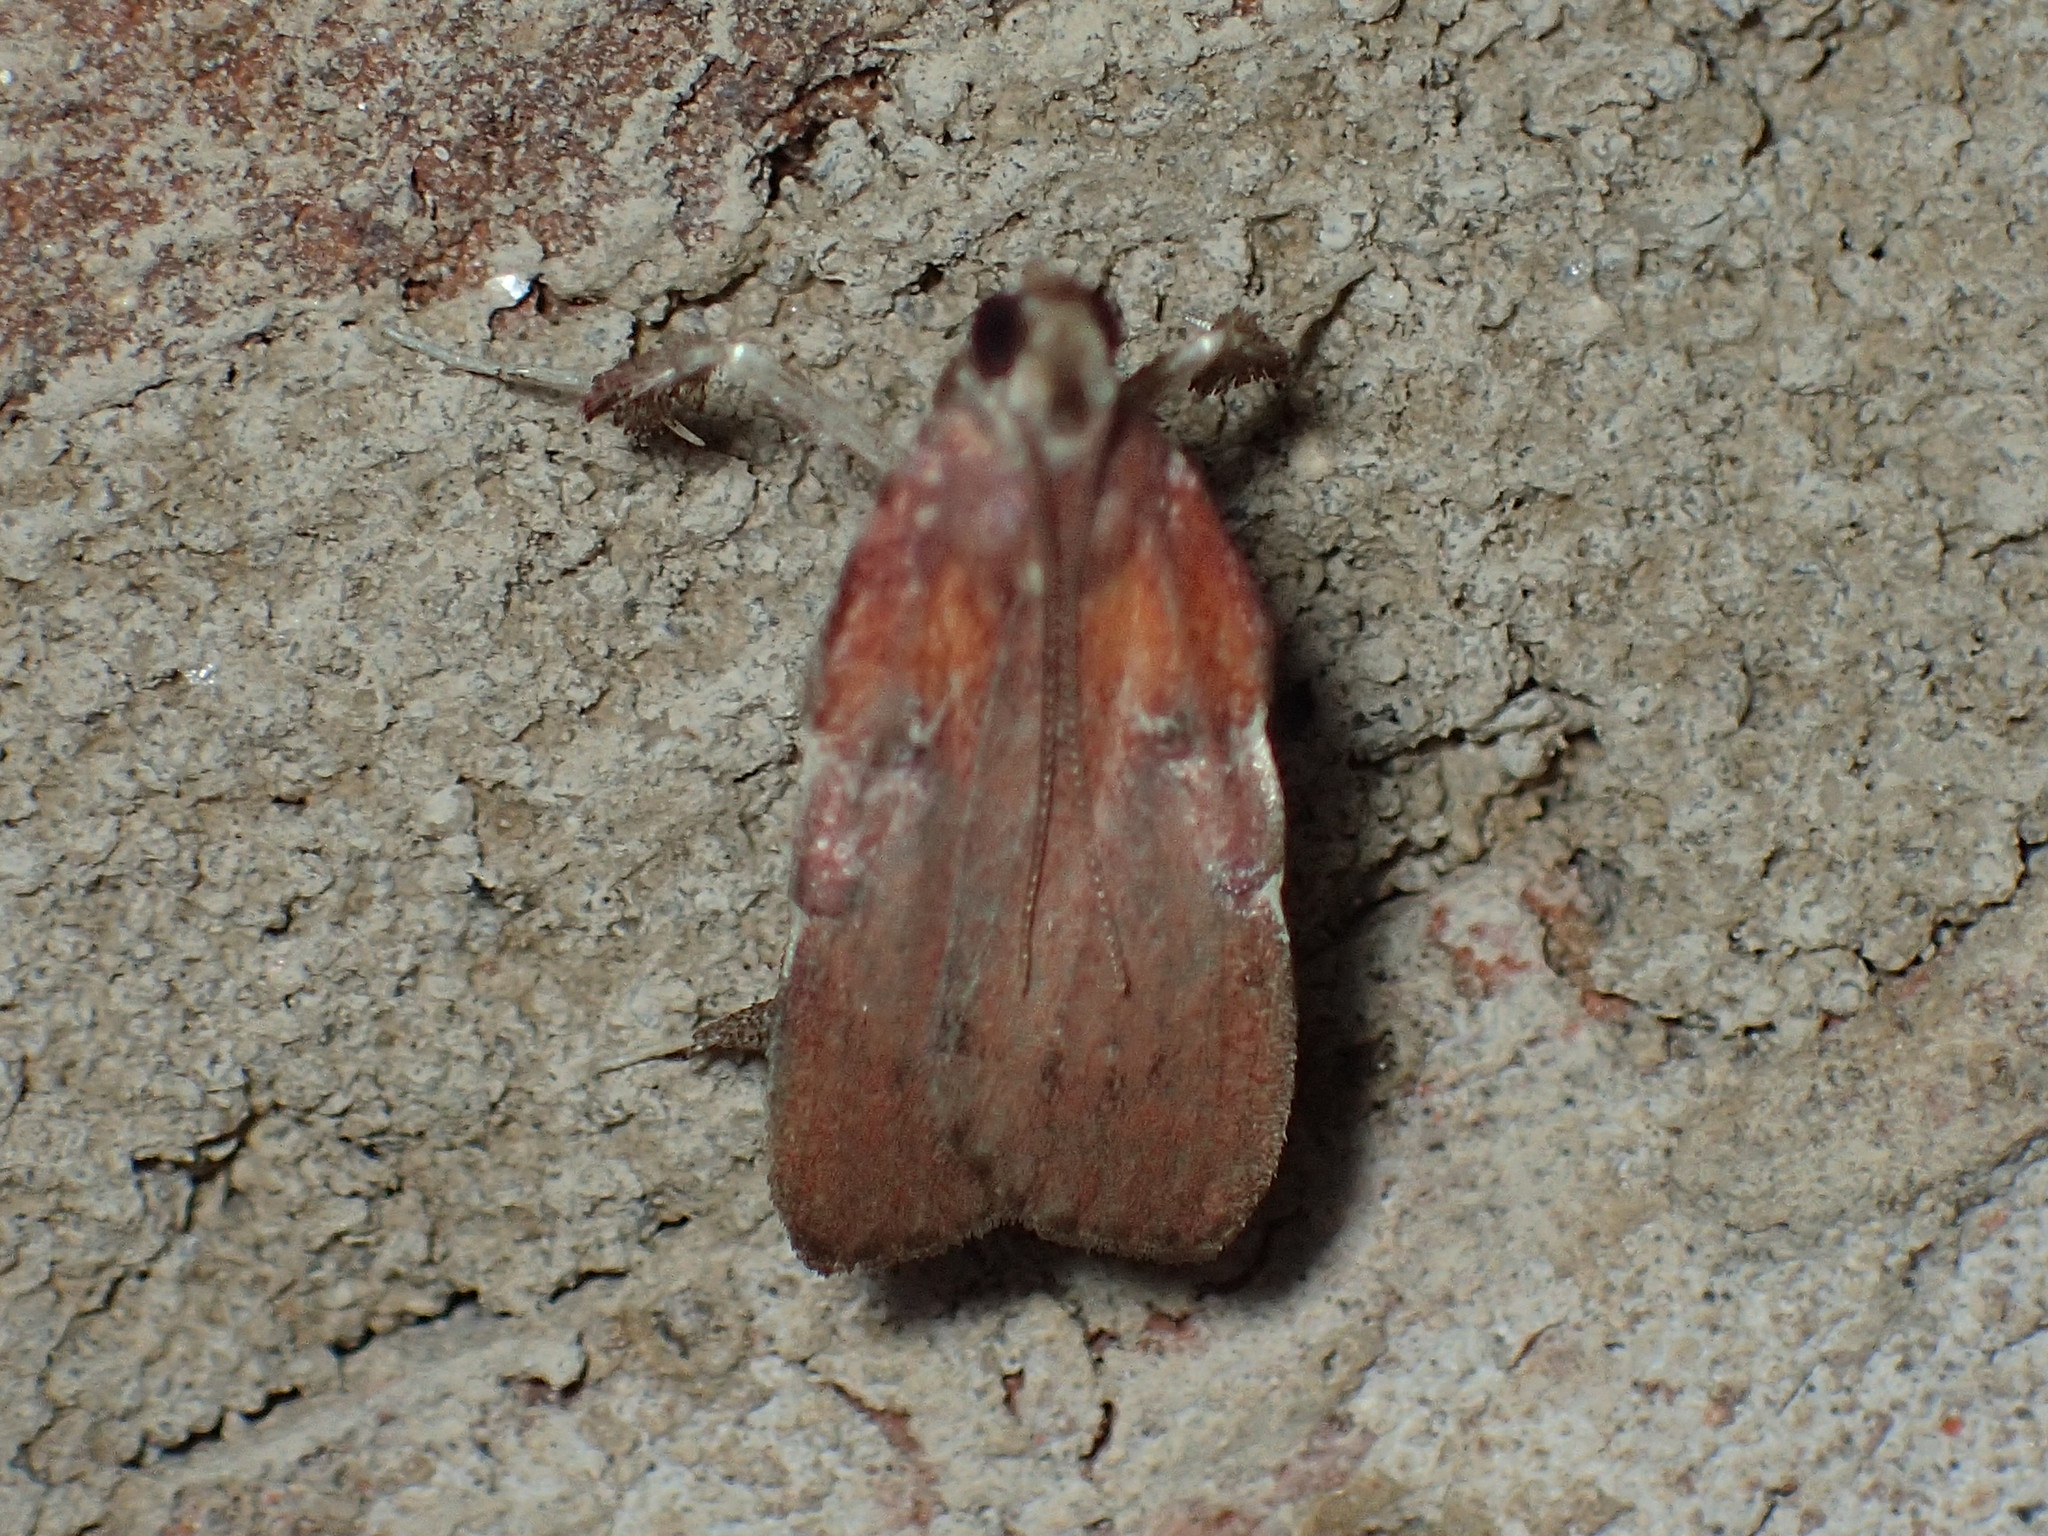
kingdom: Animalia
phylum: Arthropoda
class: Insecta
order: Lepidoptera
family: Pyralidae
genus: Galasa
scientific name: Galasa nigrinodis
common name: Boxwood leaftier moth
